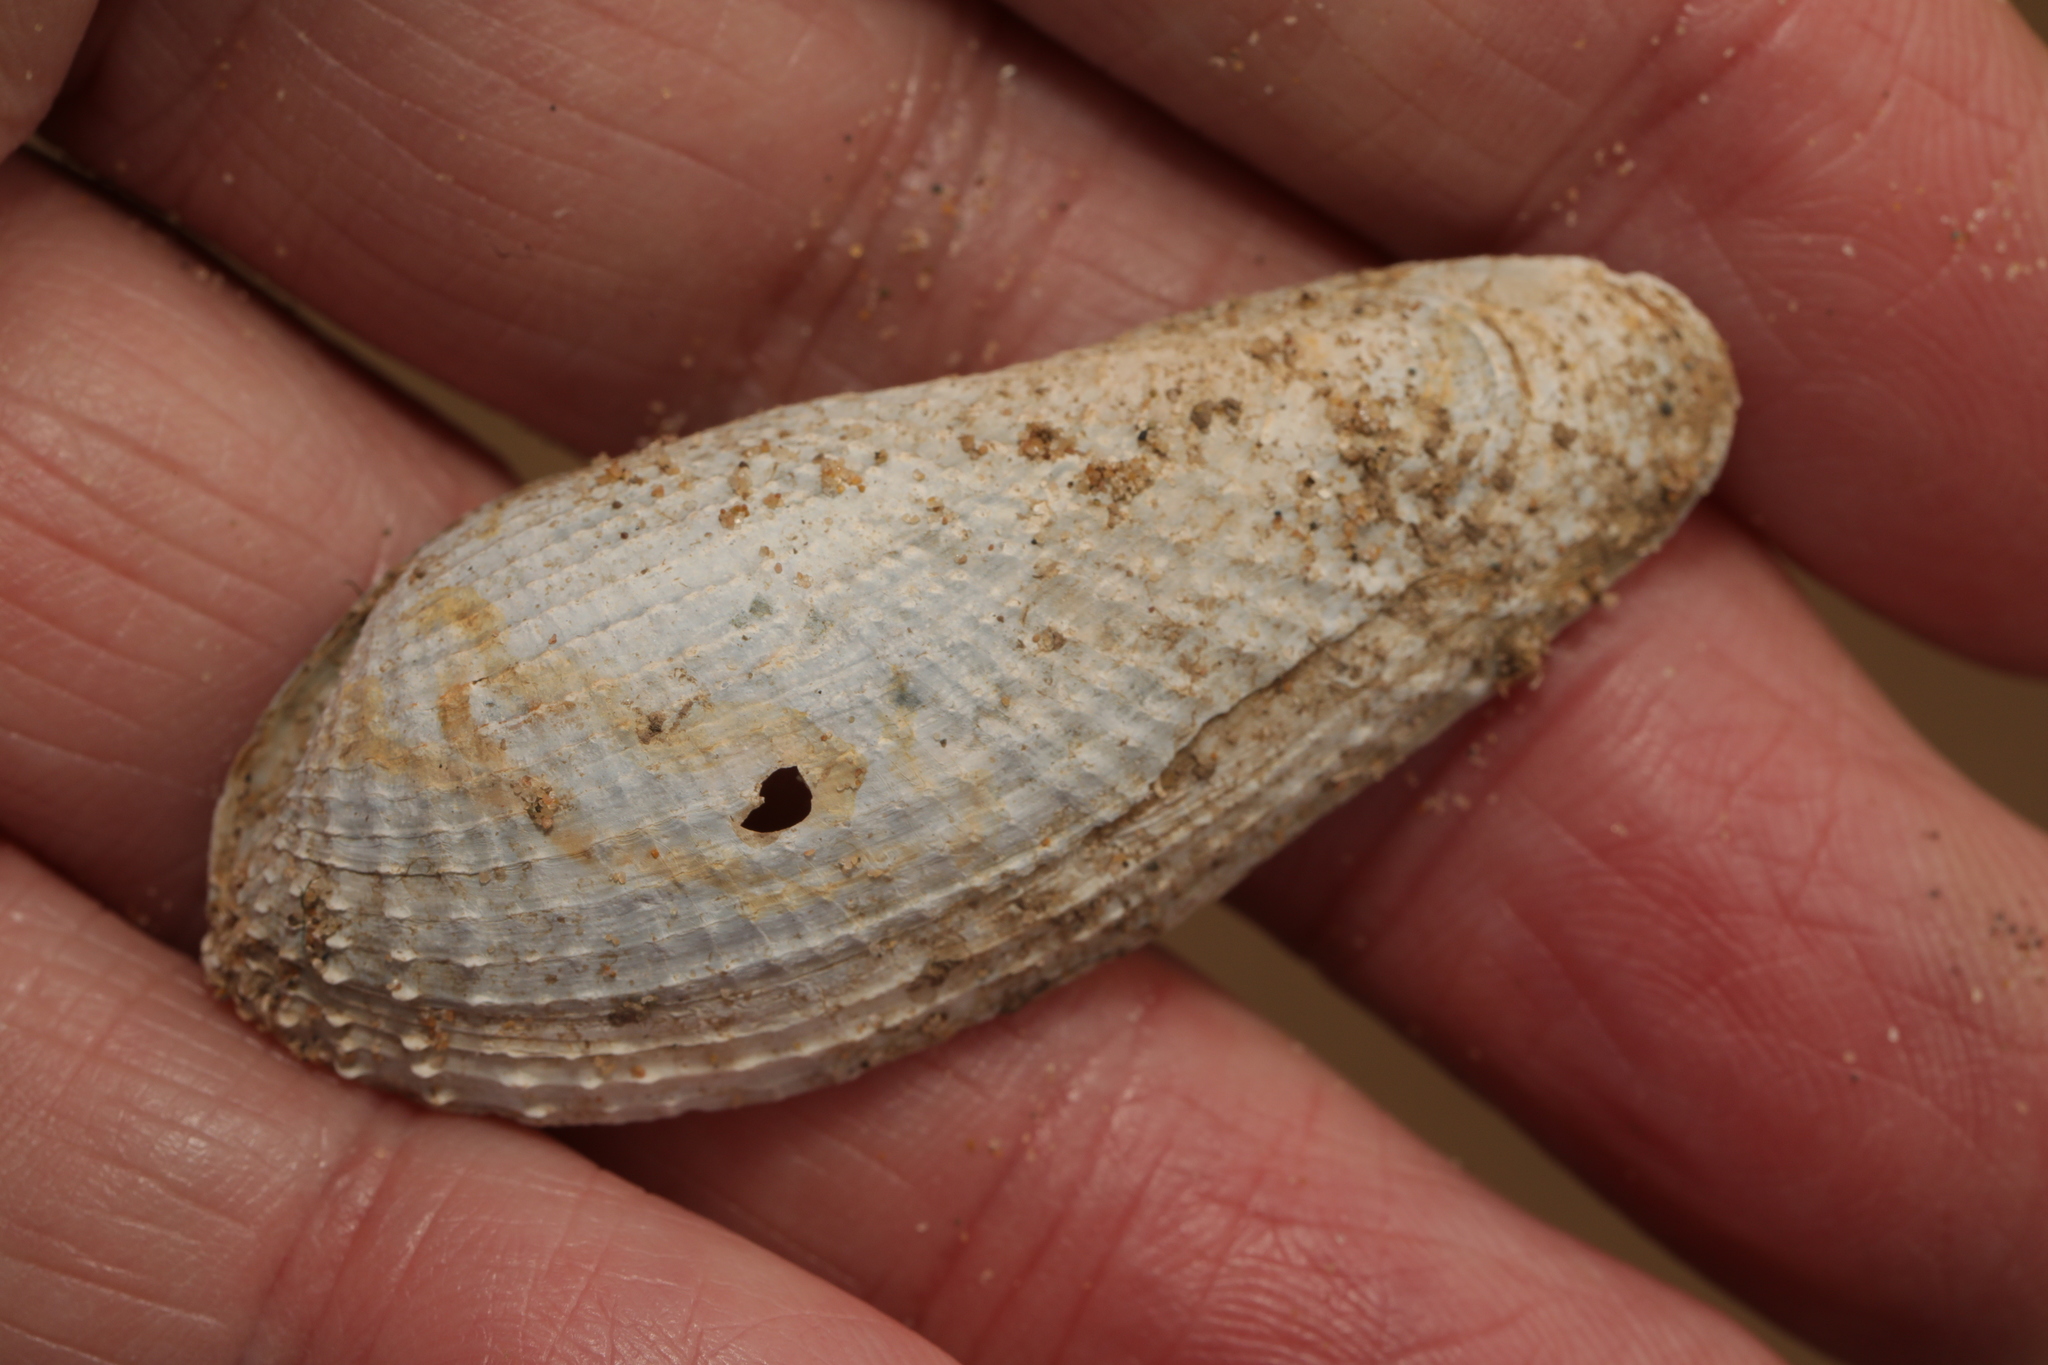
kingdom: Animalia
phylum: Mollusca
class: Bivalvia
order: Myida
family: Pholadidae
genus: Barnea
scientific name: Barnea candida
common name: White piddock
